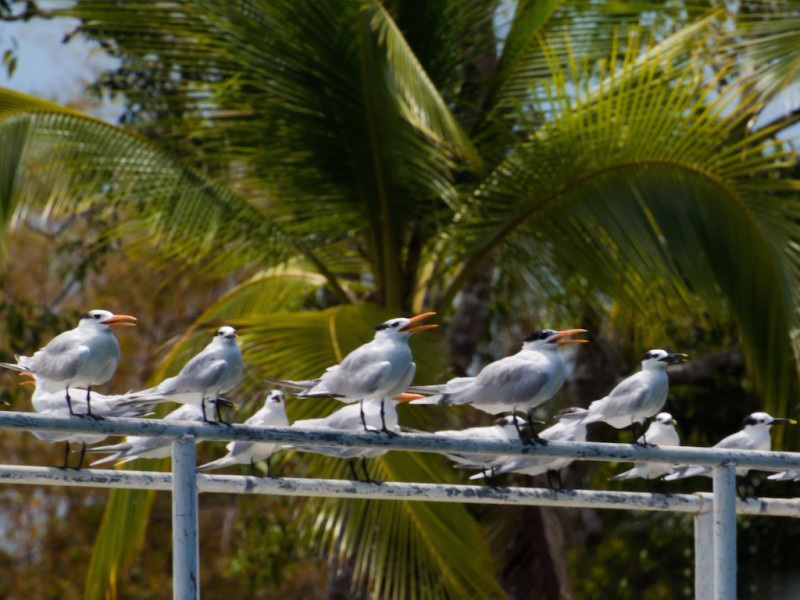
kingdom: Animalia
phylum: Chordata
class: Aves
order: Charadriiformes
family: Laridae
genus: Thalasseus
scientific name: Thalasseus acuflavidus
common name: Cabot's tern
